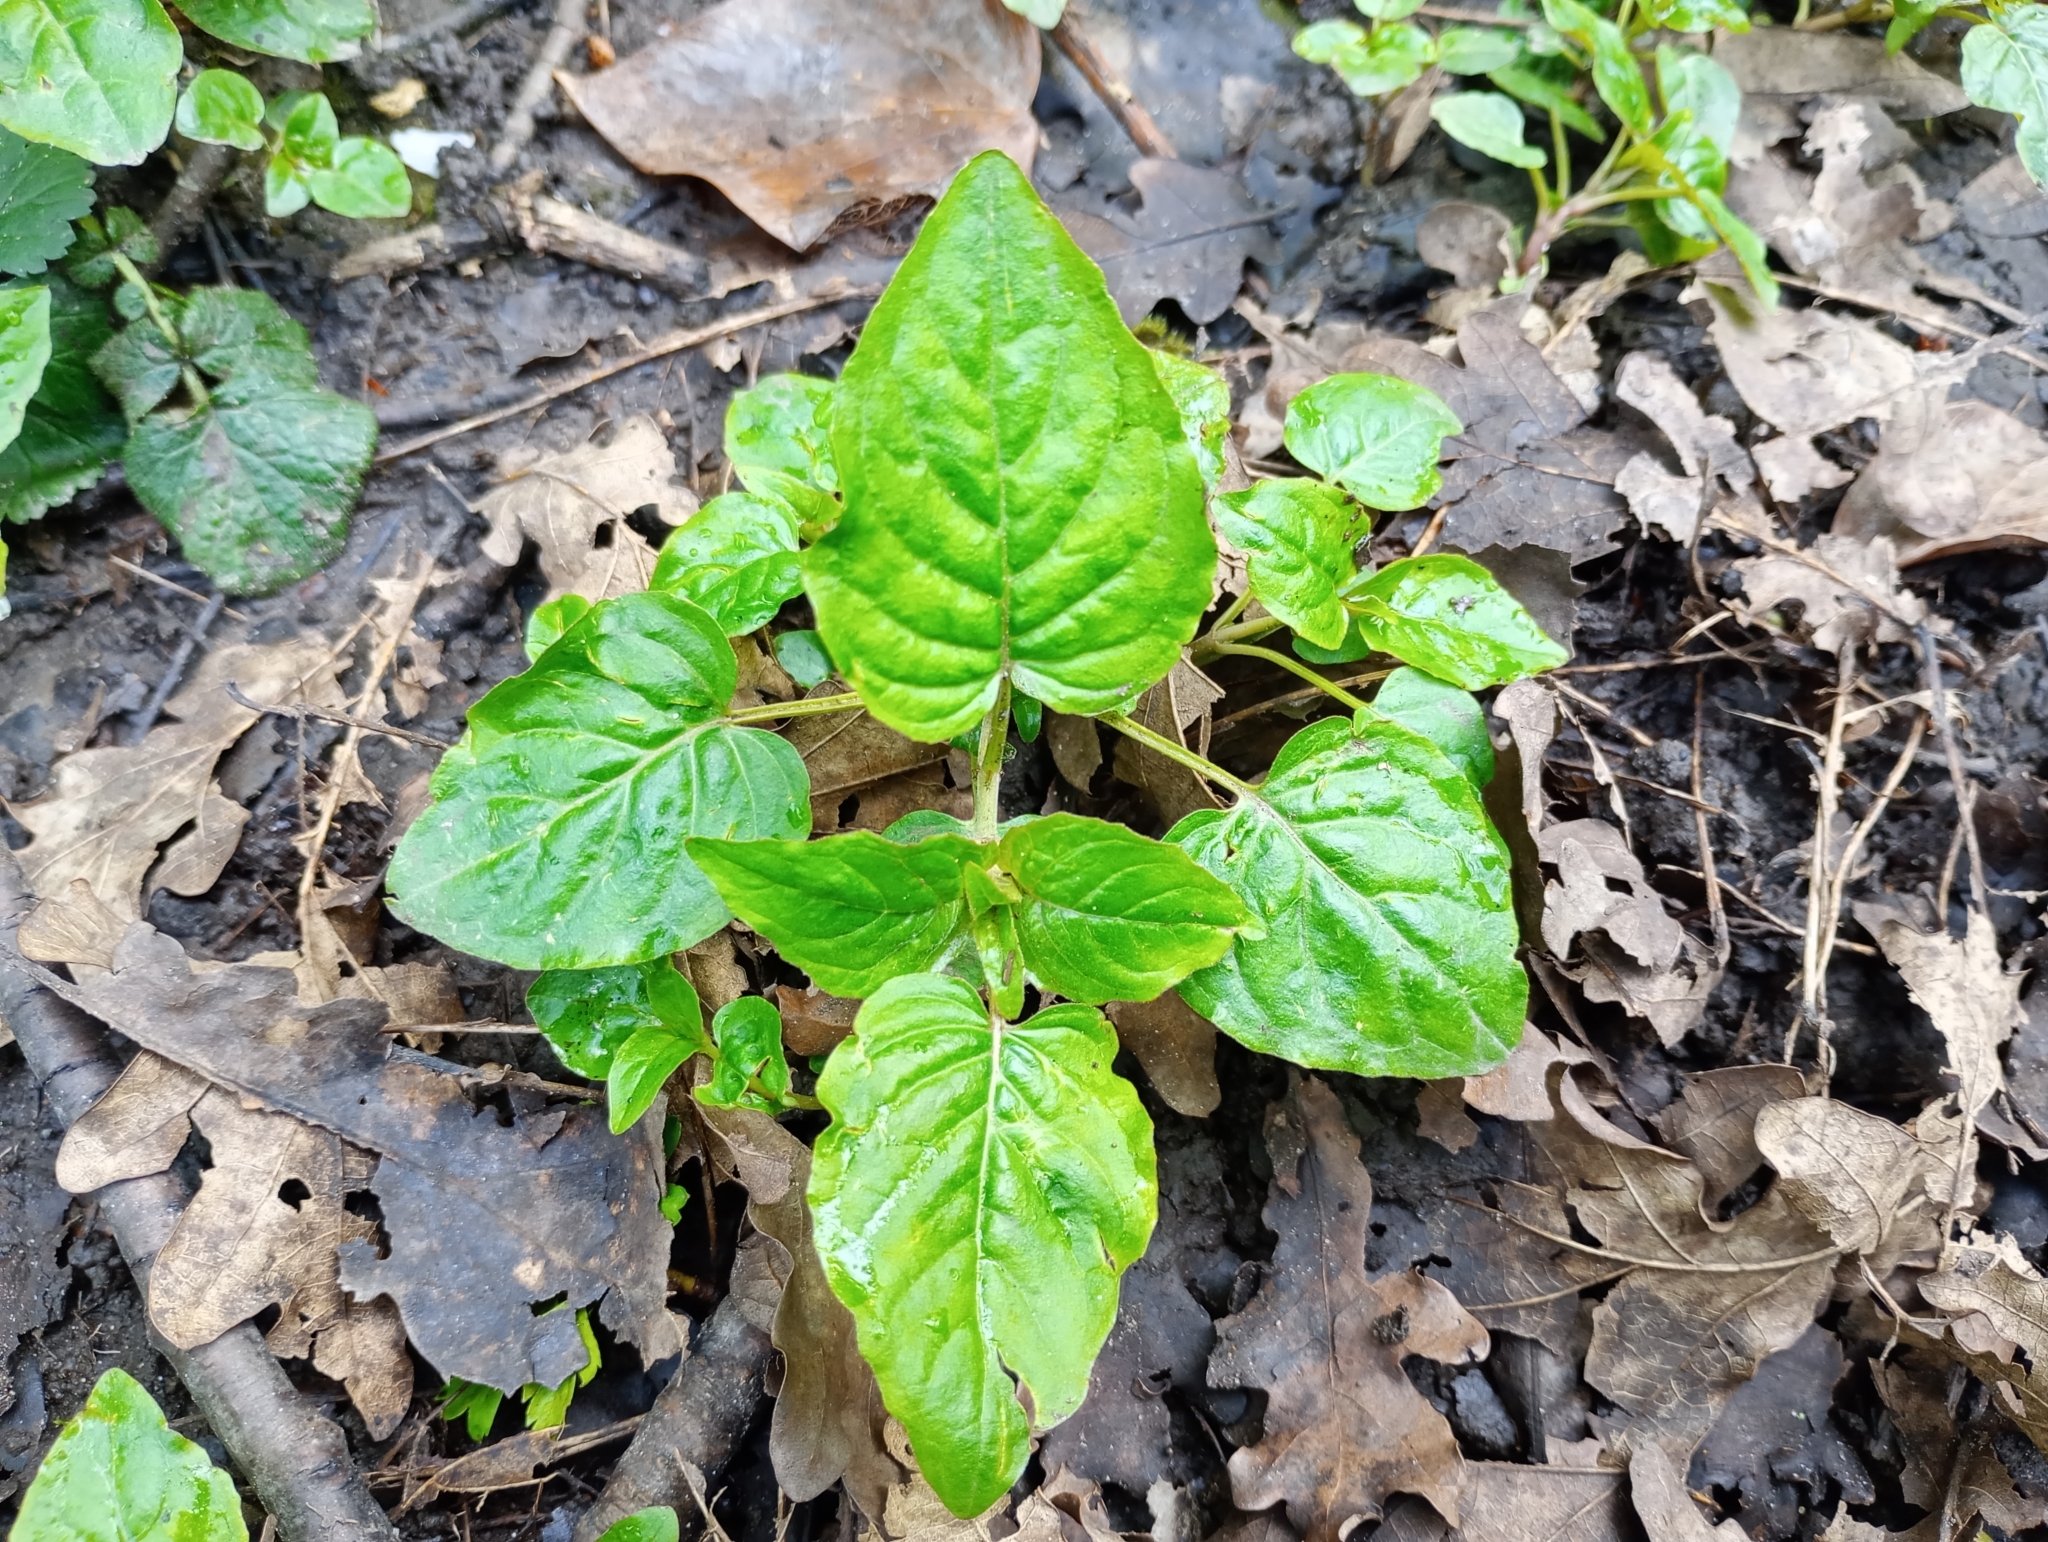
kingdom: Plantae
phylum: Tracheophyta
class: Magnoliopsida
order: Myrtales
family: Onagraceae
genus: Circaea
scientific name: Circaea lutetiana
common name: Enchanter's-nightshade
